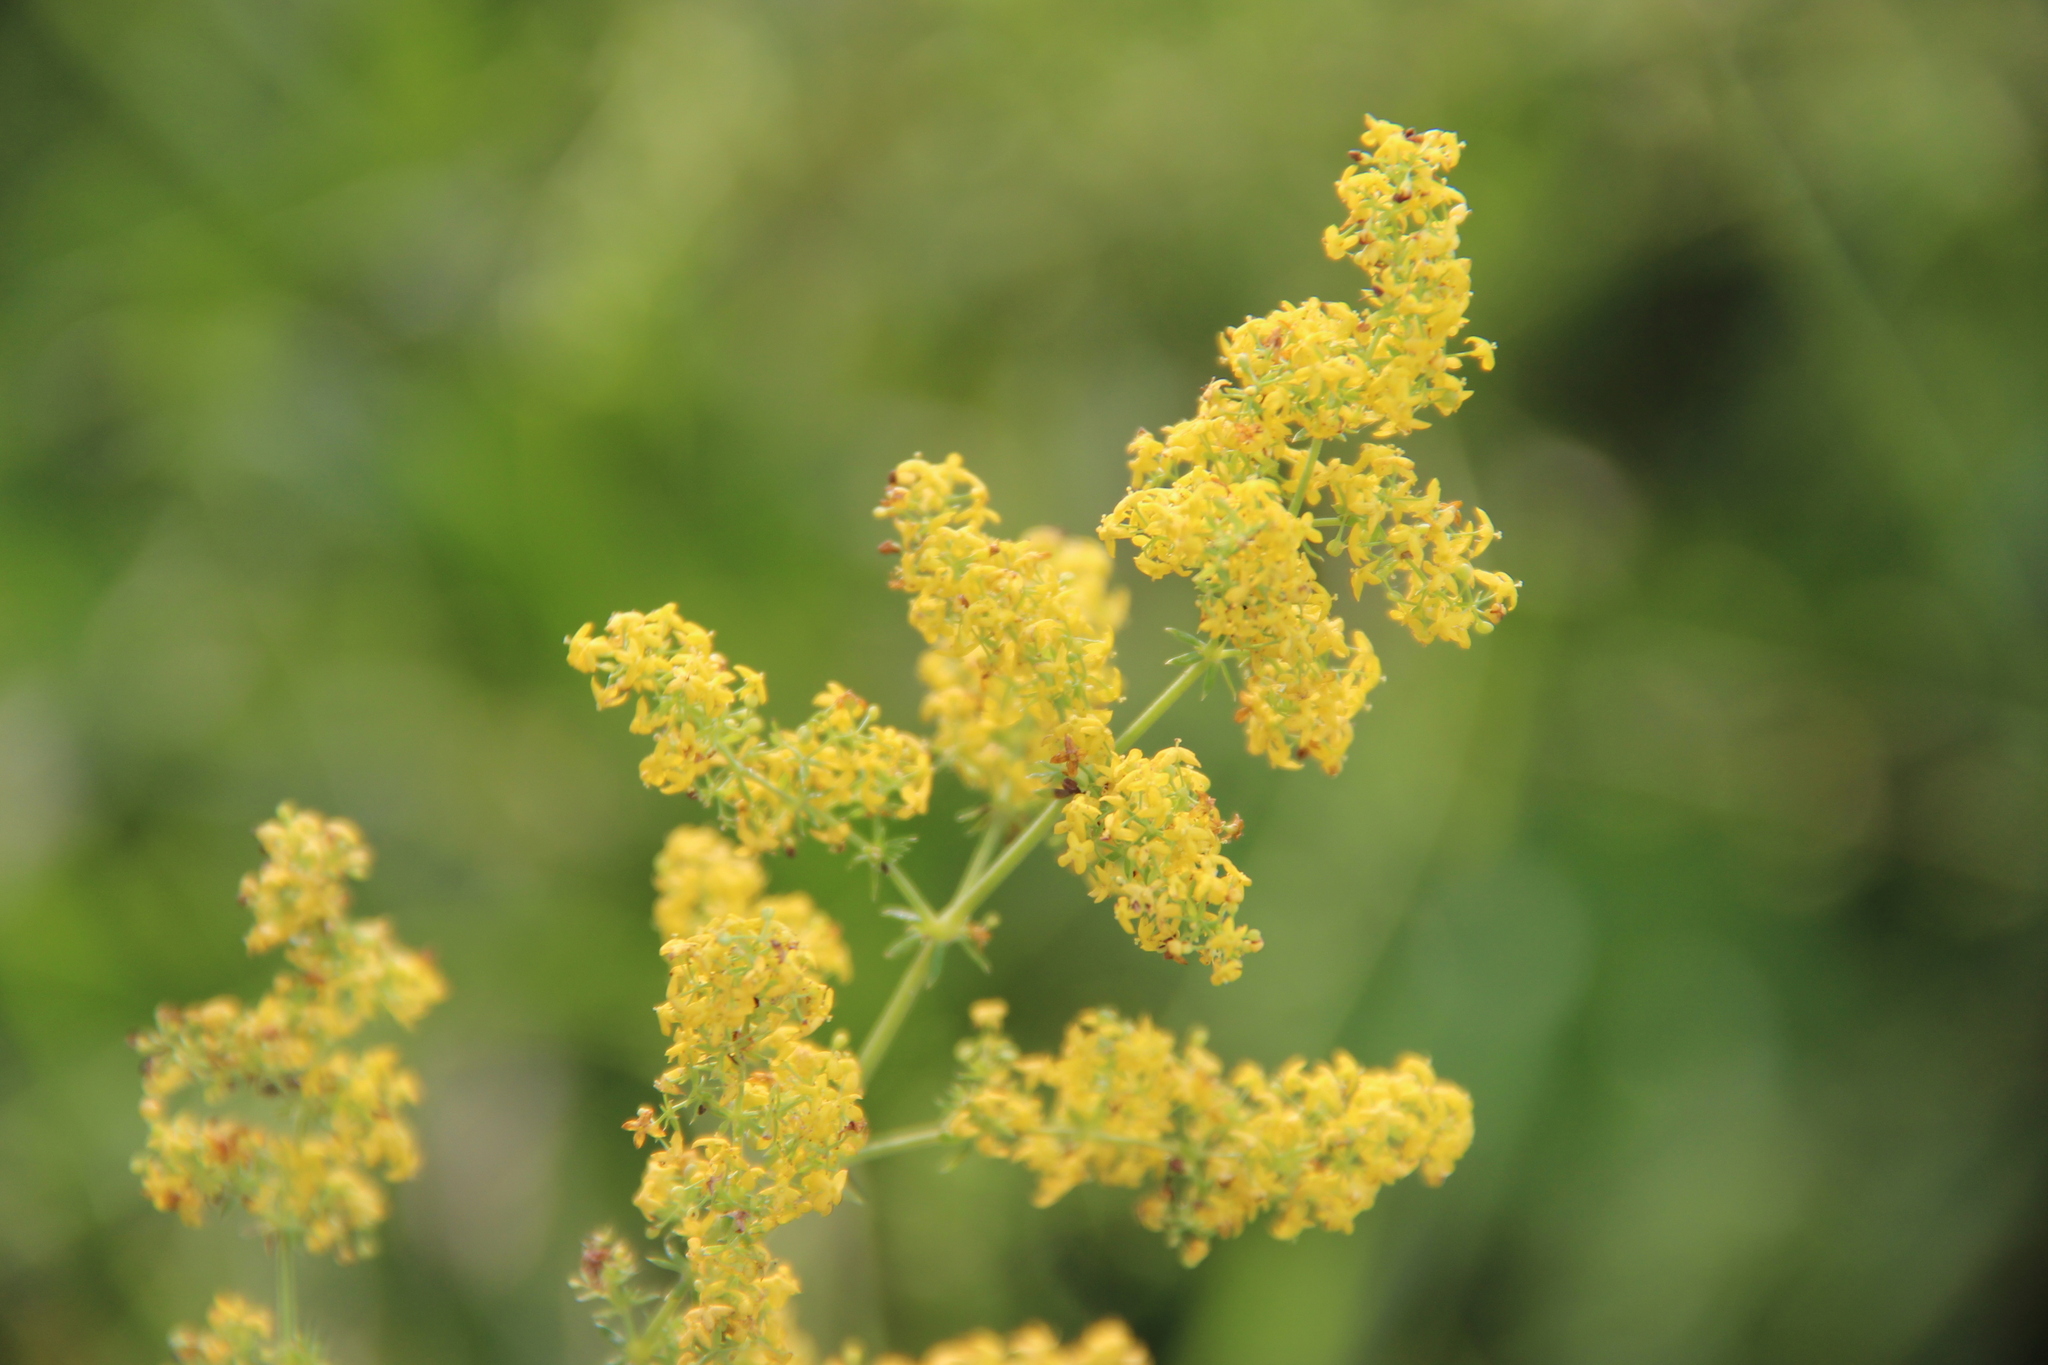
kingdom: Plantae
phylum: Tracheophyta
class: Magnoliopsida
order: Gentianales
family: Rubiaceae
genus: Galium
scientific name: Galium verum
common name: Lady's bedstraw
